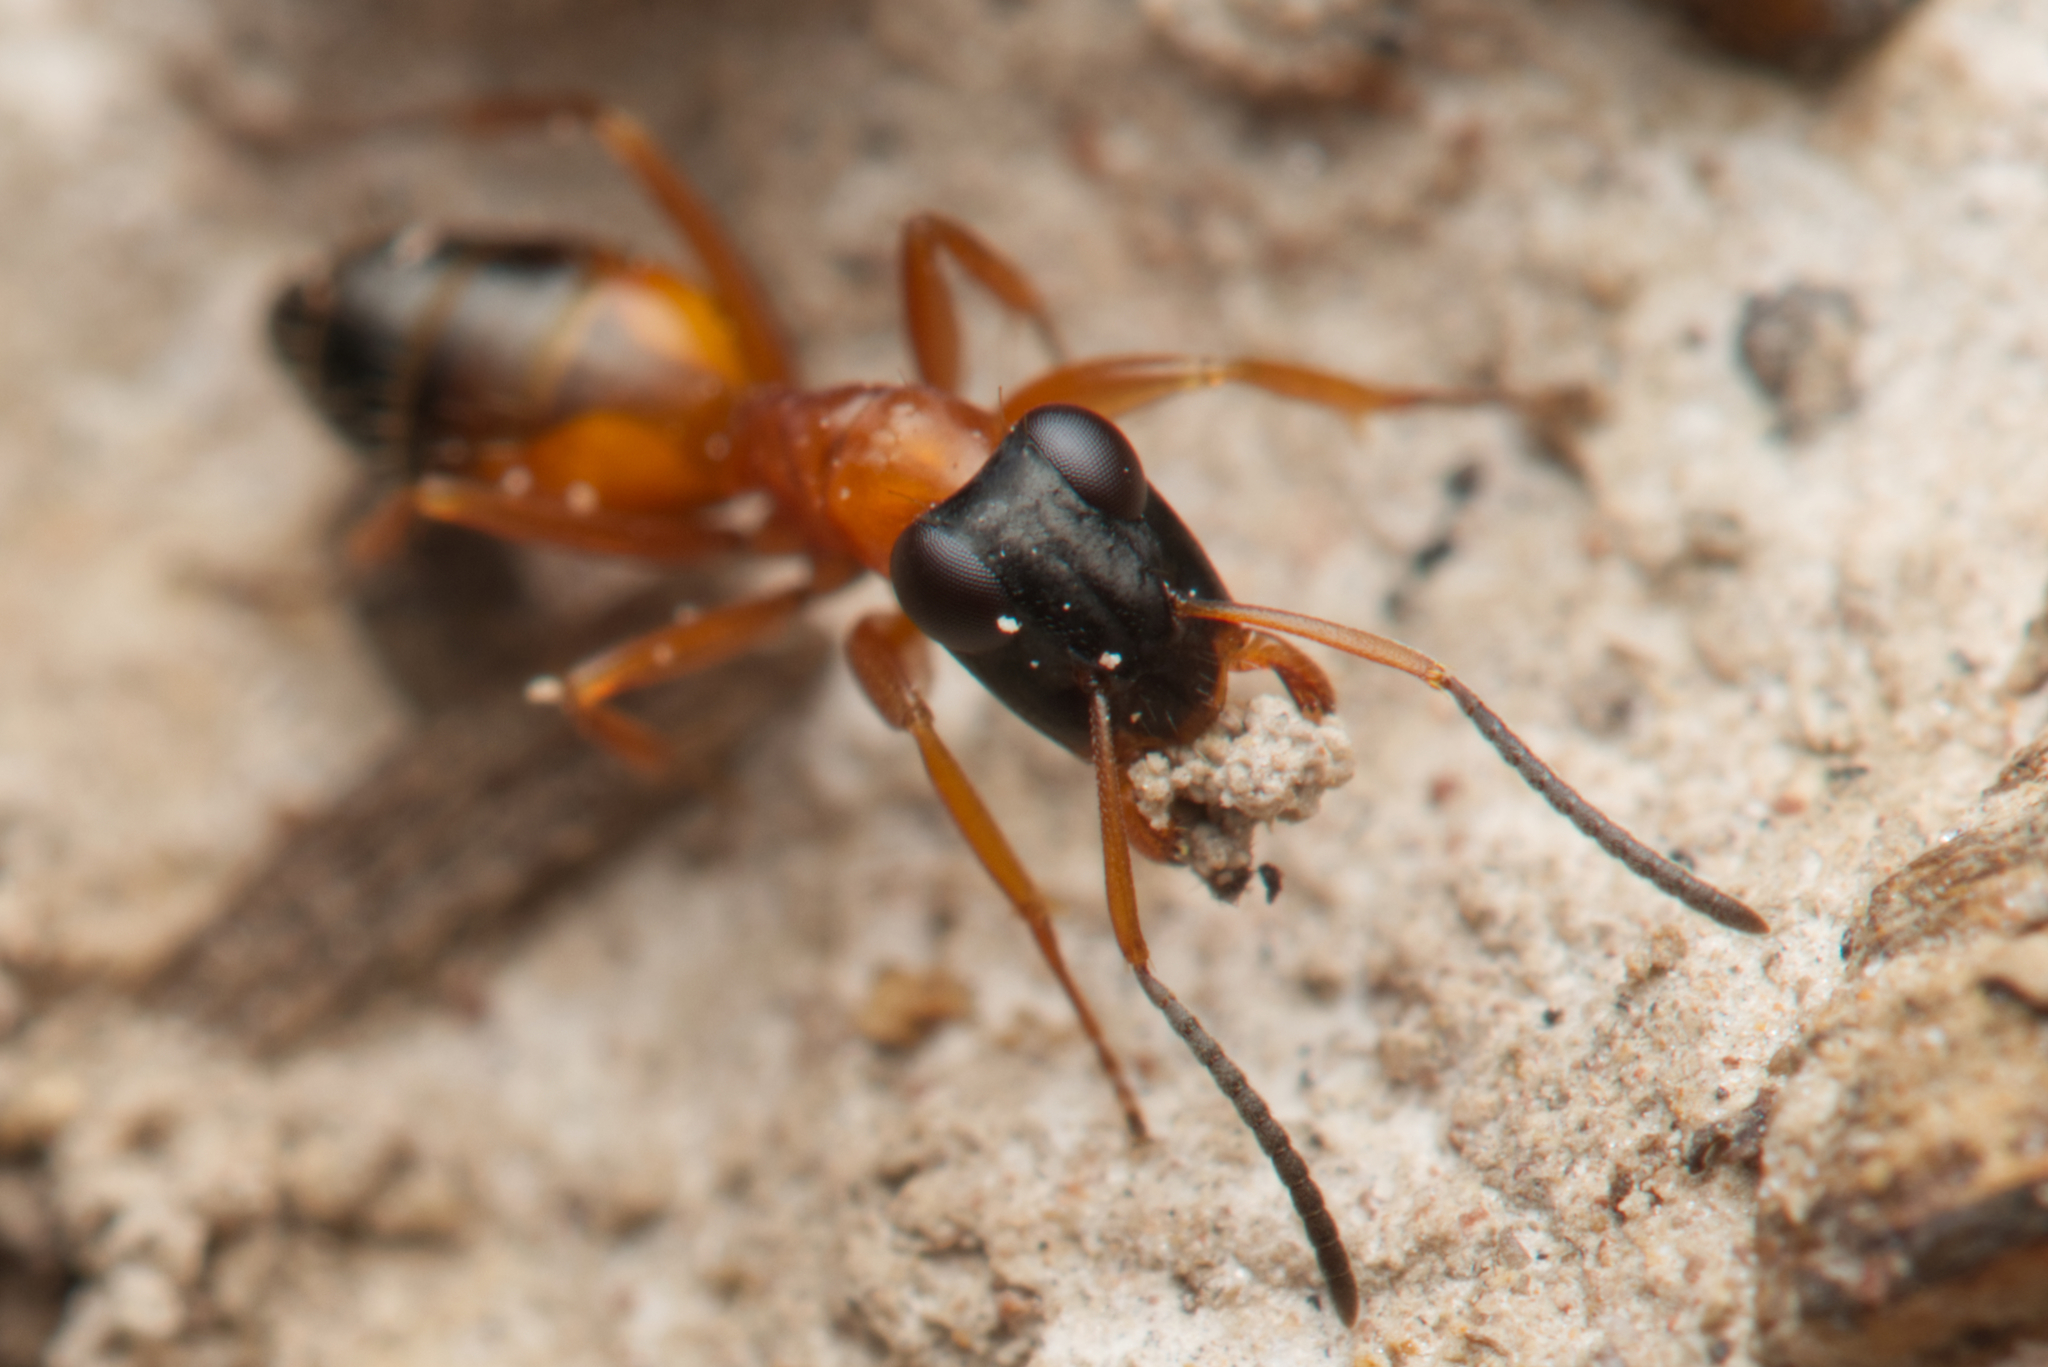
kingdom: Animalia
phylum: Arthropoda
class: Insecta
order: Hymenoptera
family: Formicidae
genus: Opisthopsis
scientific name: Opisthopsis rufithorax
